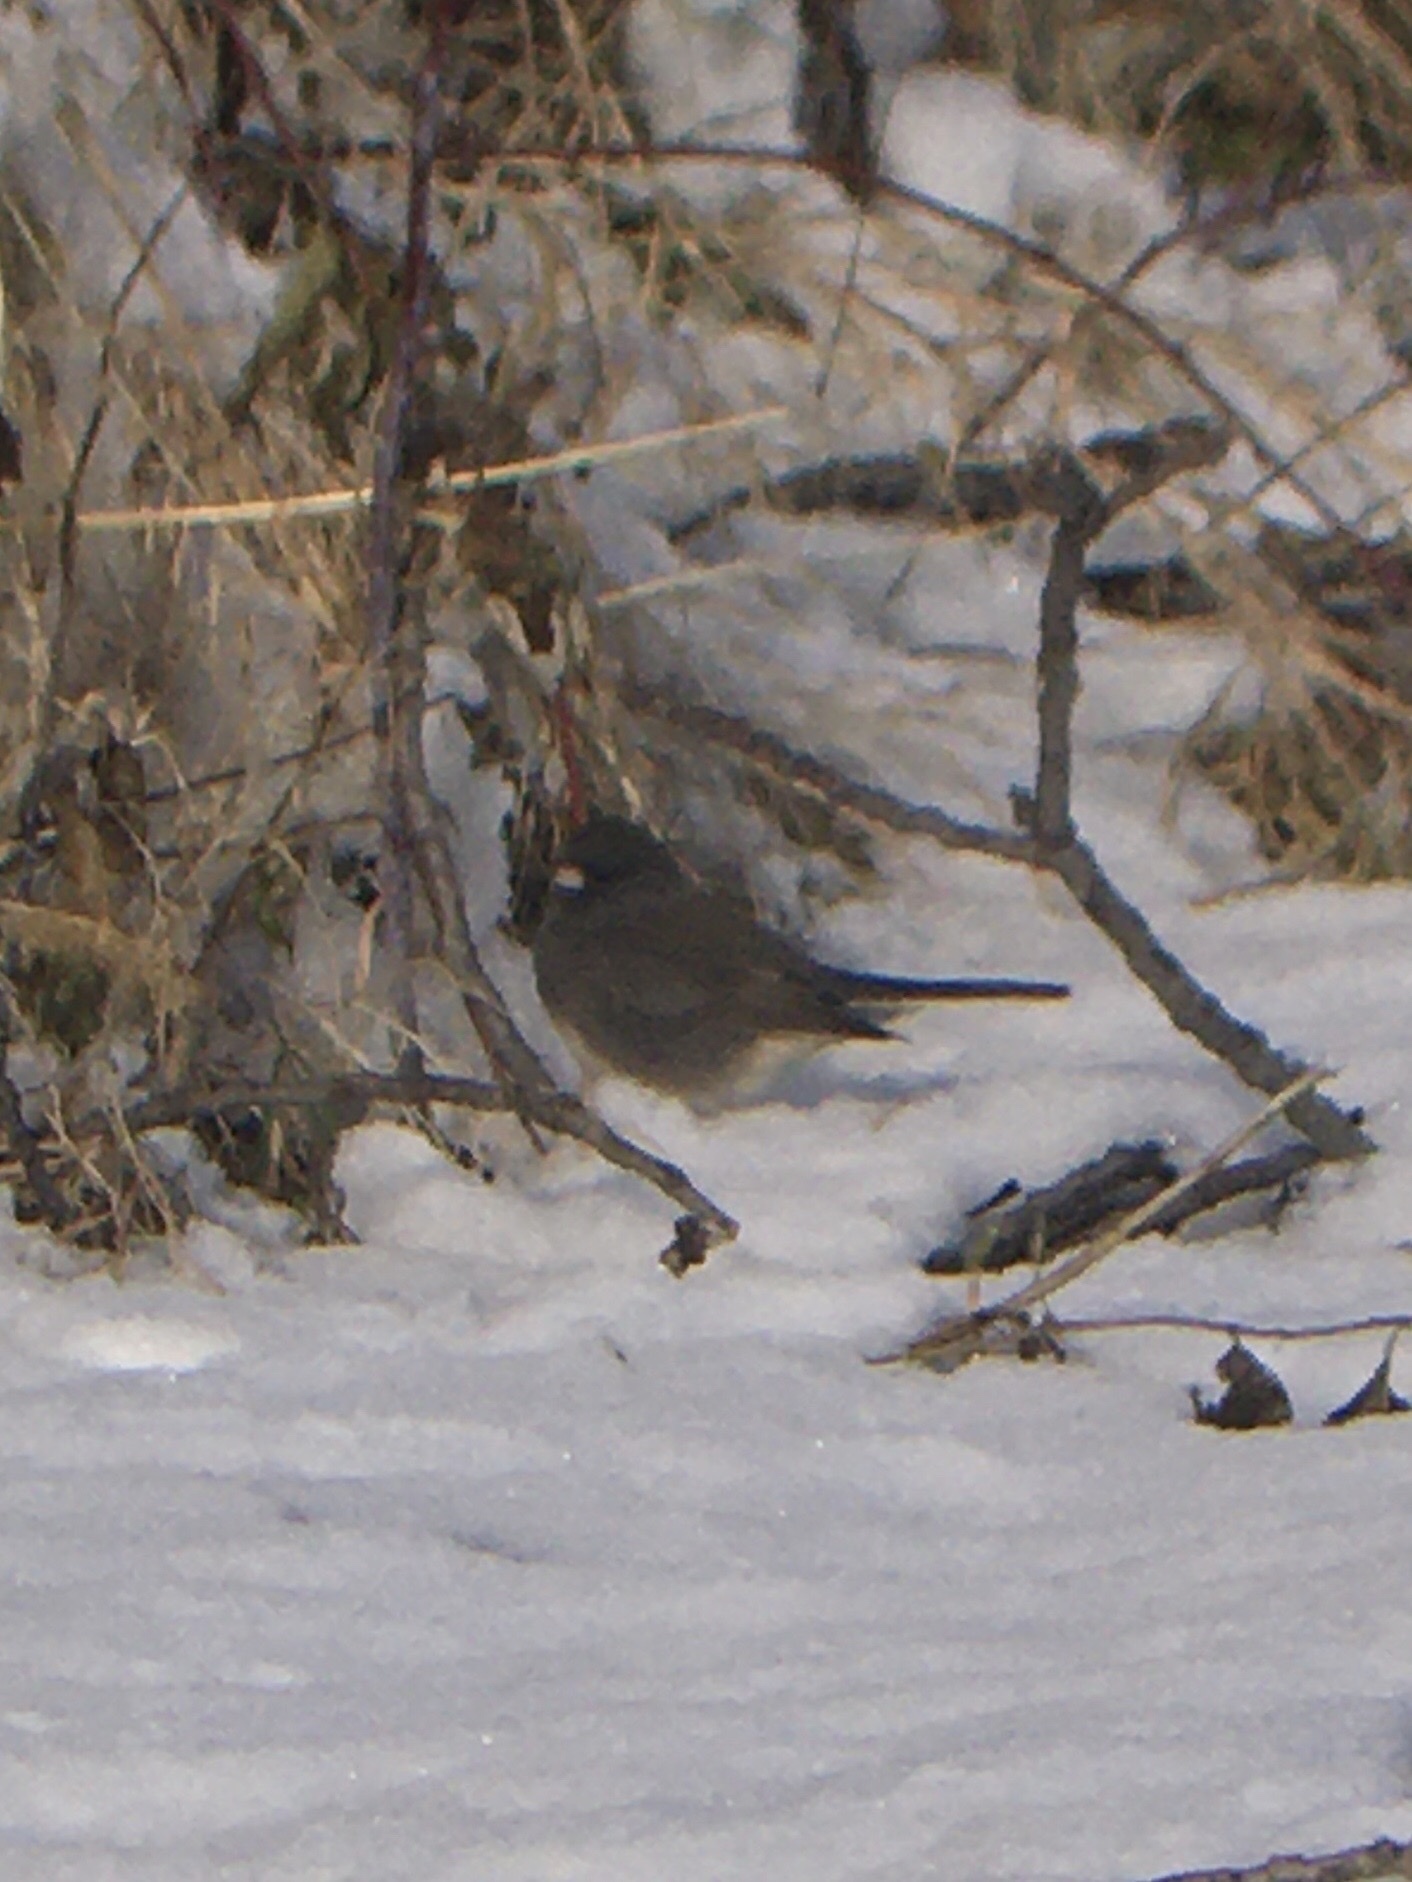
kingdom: Animalia
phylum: Chordata
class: Aves
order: Passeriformes
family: Passerellidae
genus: Junco
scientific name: Junco hyemalis
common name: Dark-eyed junco
